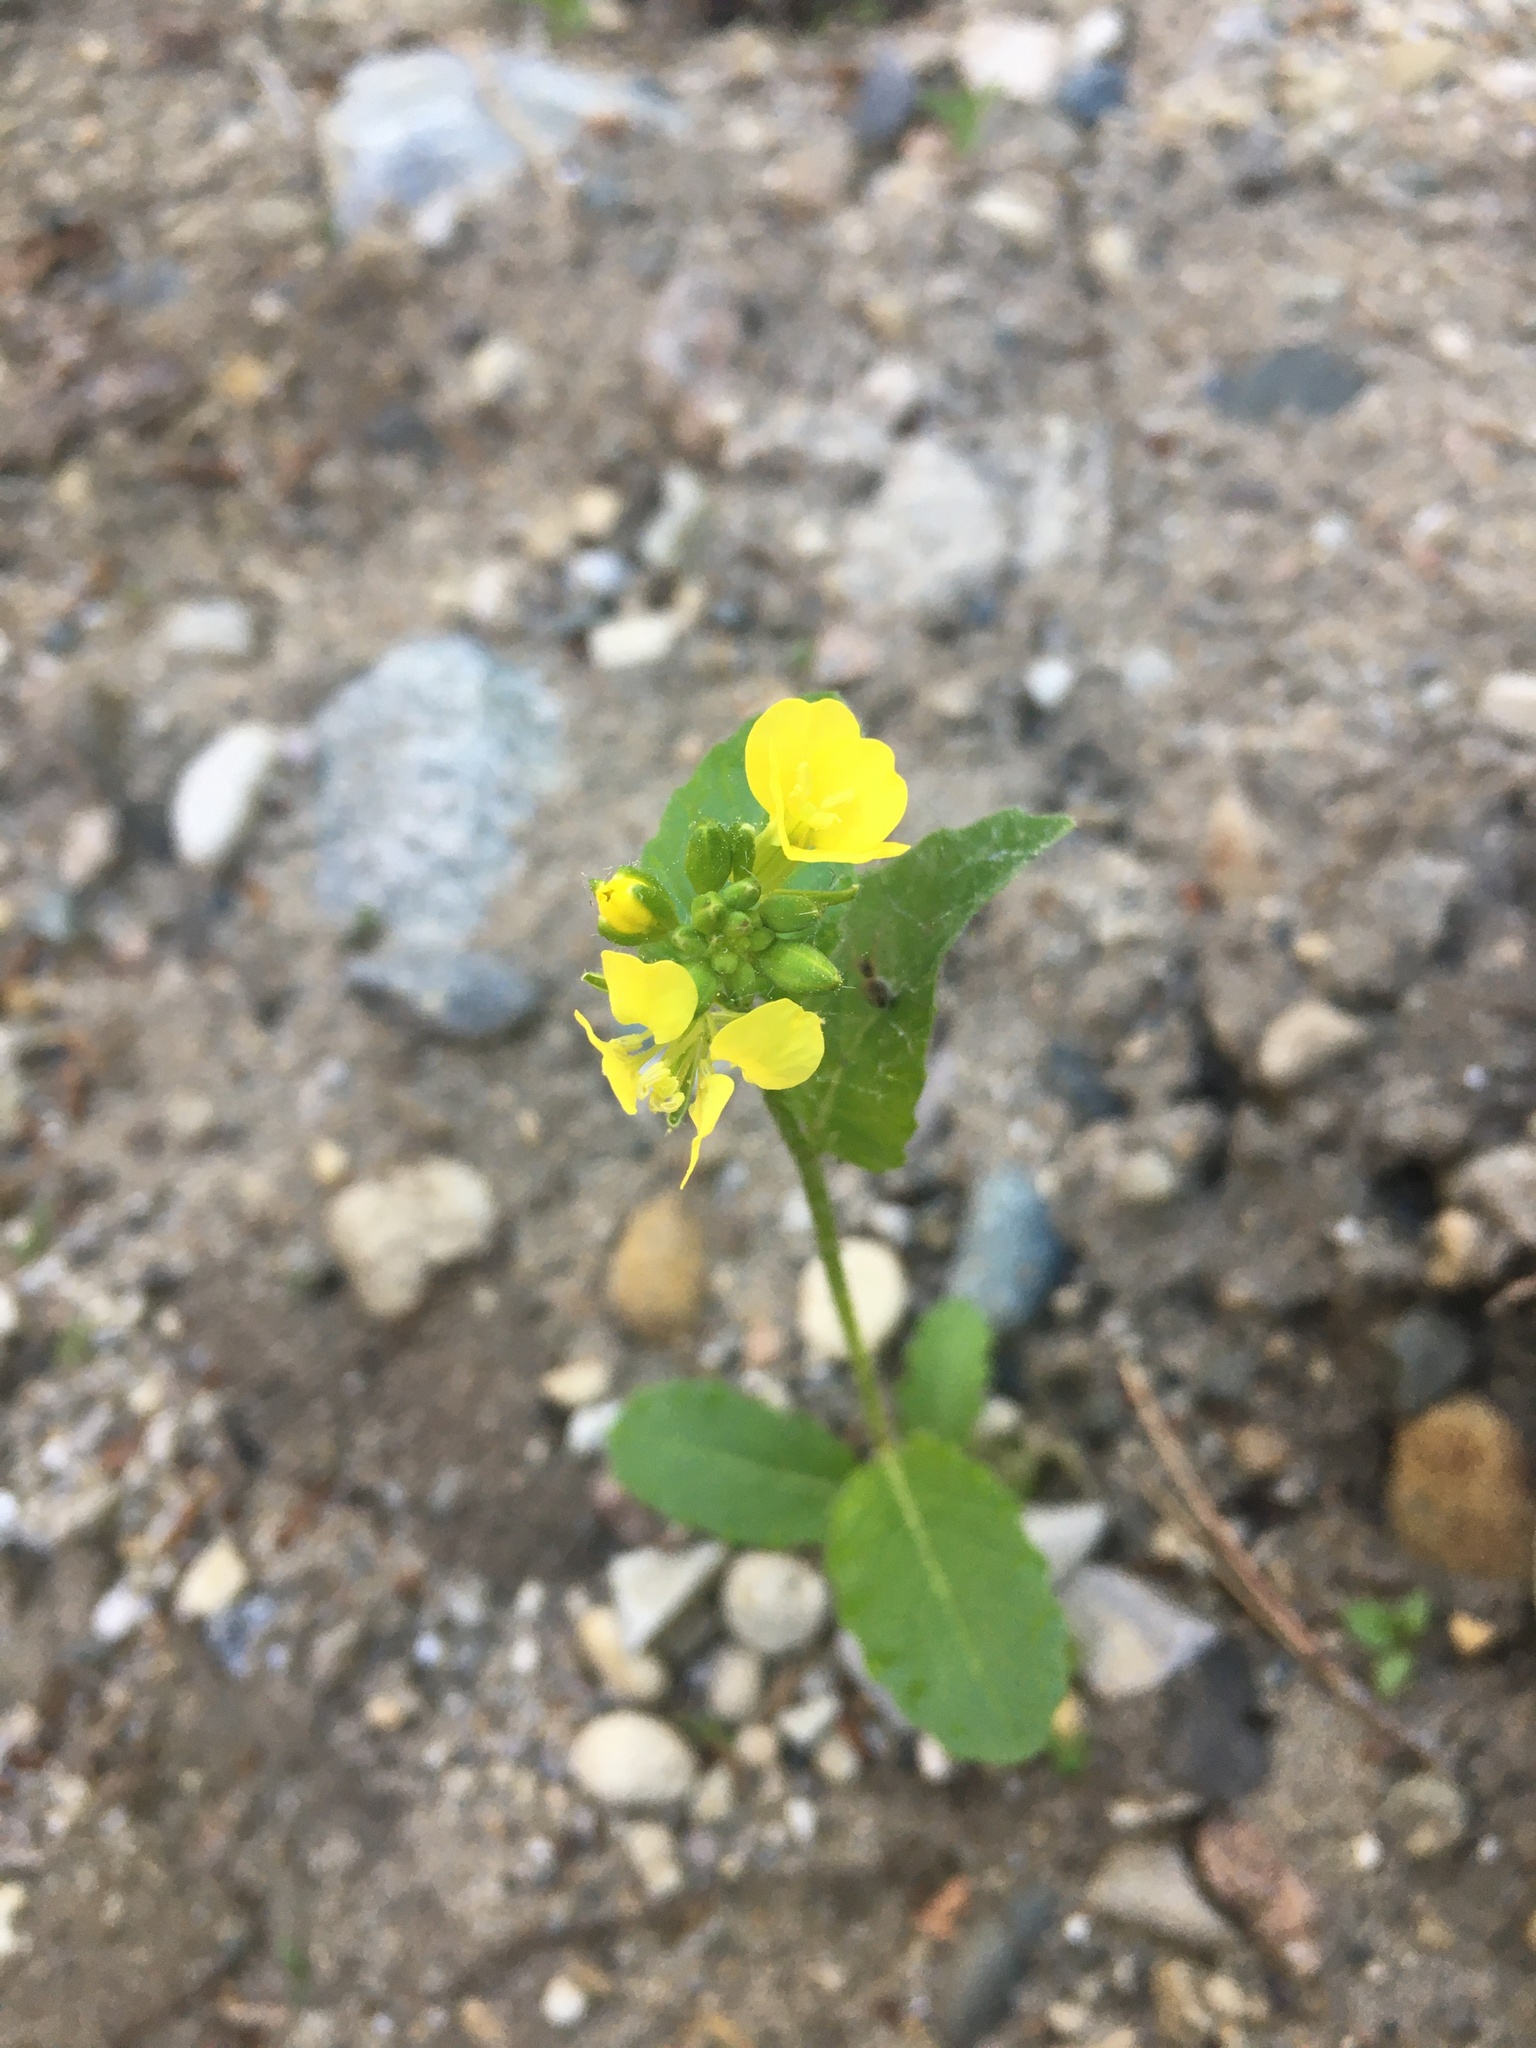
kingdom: Plantae
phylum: Tracheophyta
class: Magnoliopsida
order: Brassicales
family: Brassicaceae
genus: Sinapis
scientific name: Sinapis arvensis
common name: Charlock
